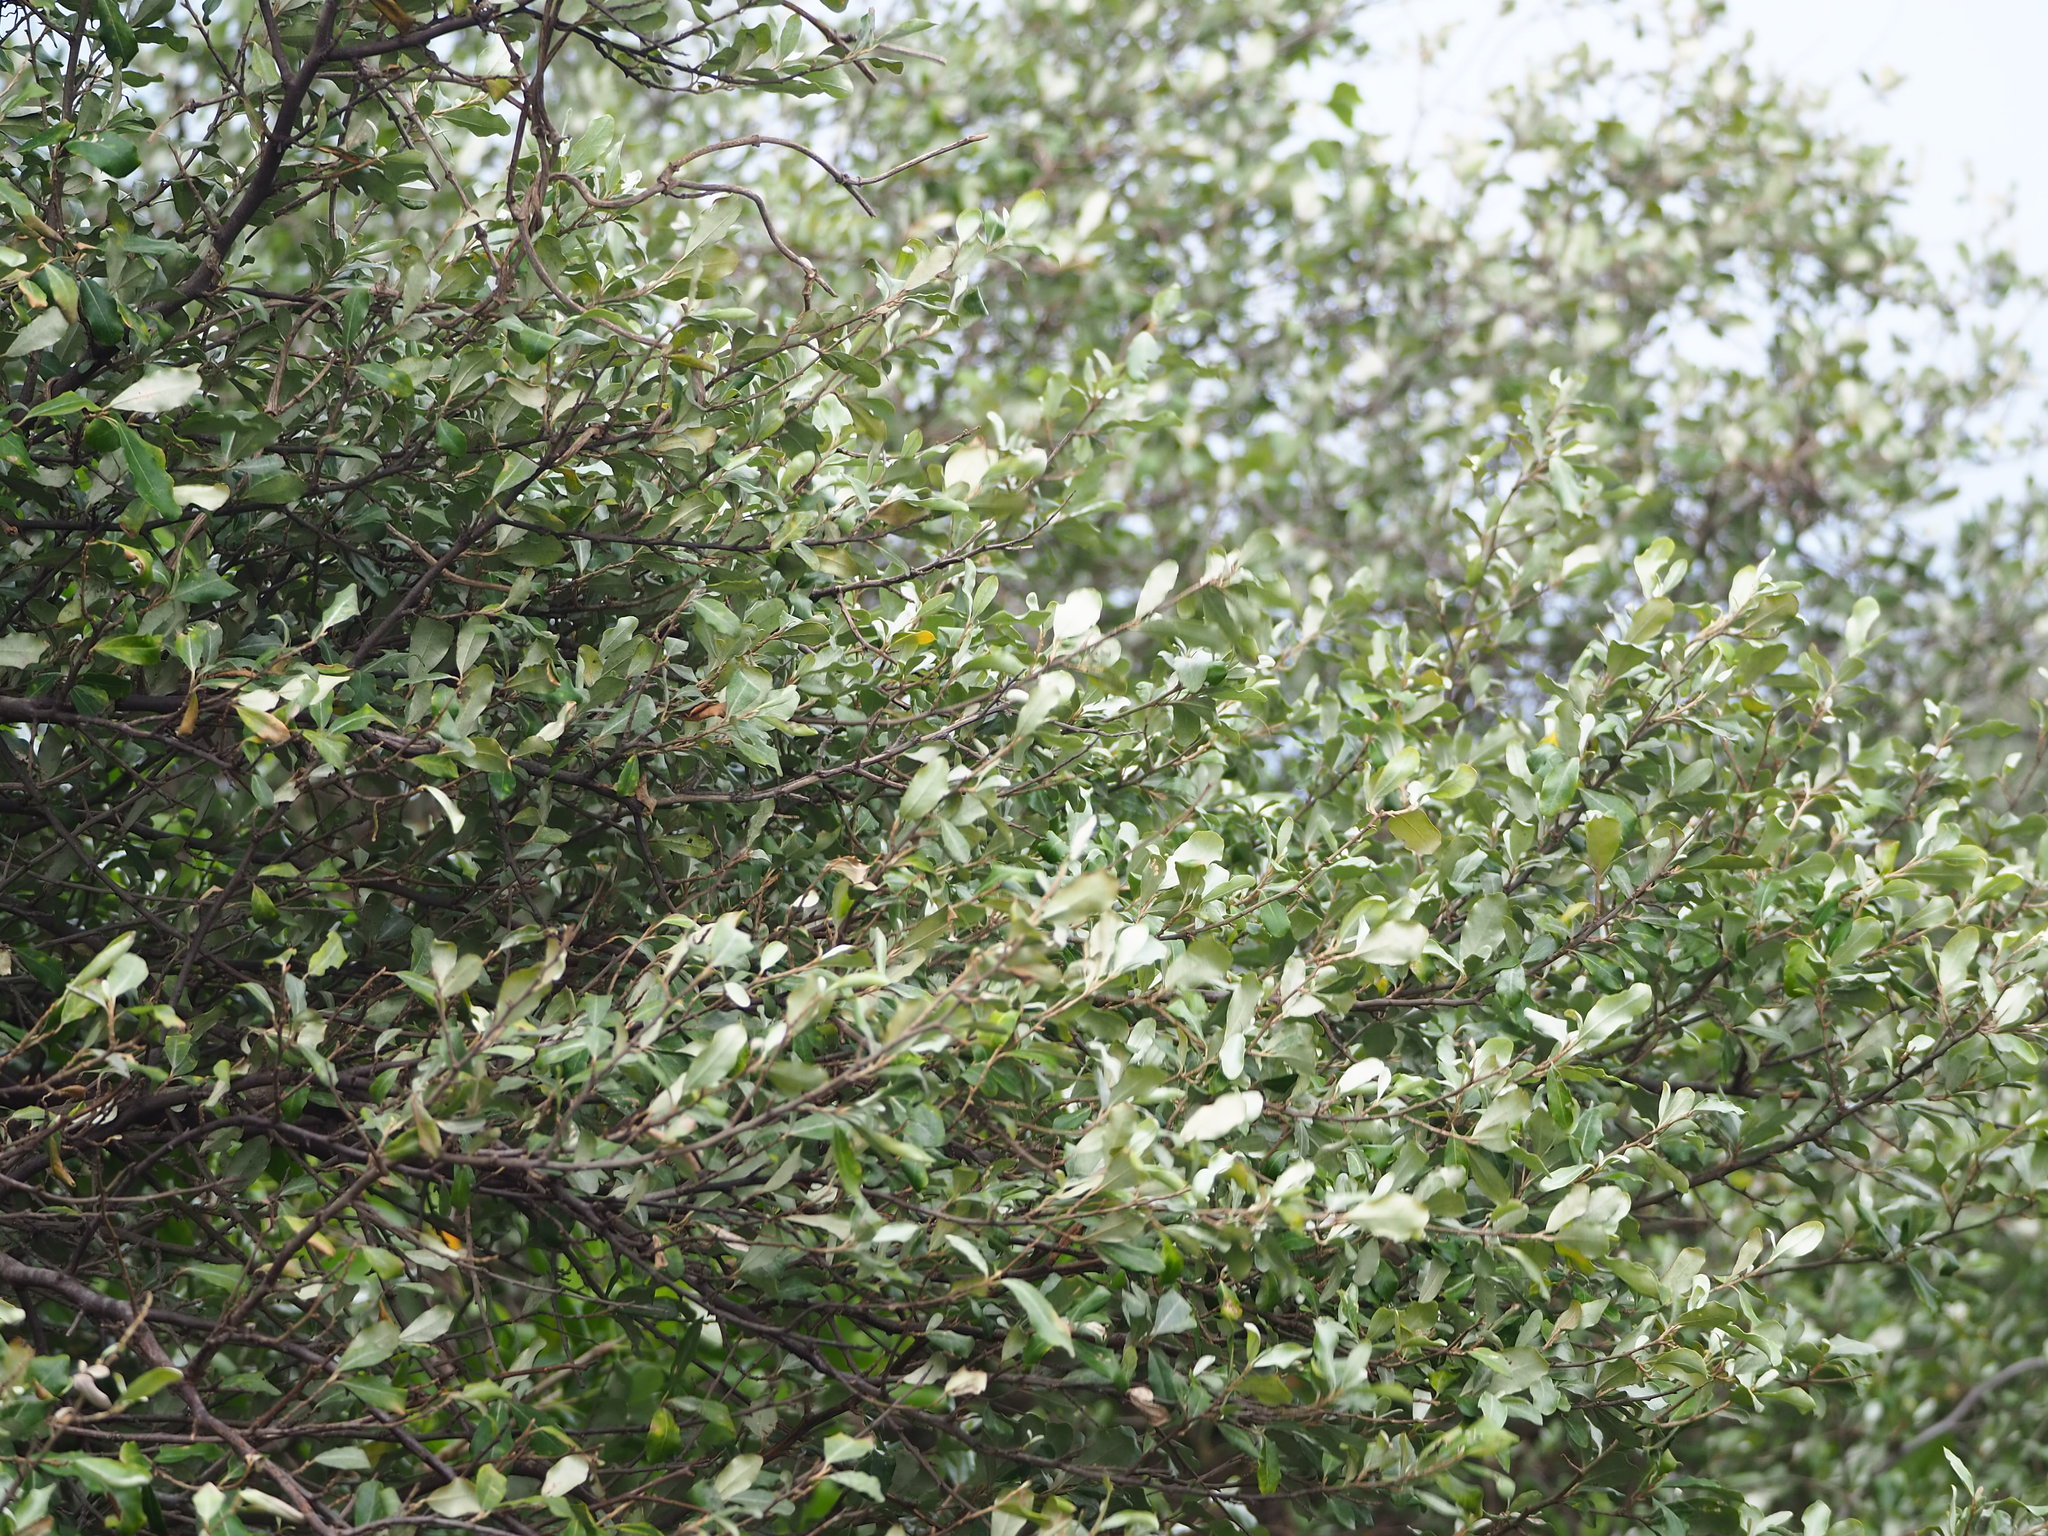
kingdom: Plantae
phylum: Tracheophyta
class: Magnoliopsida
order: Rosales
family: Elaeagnaceae
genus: Elaeagnus
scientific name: Elaeagnus oldhamii
